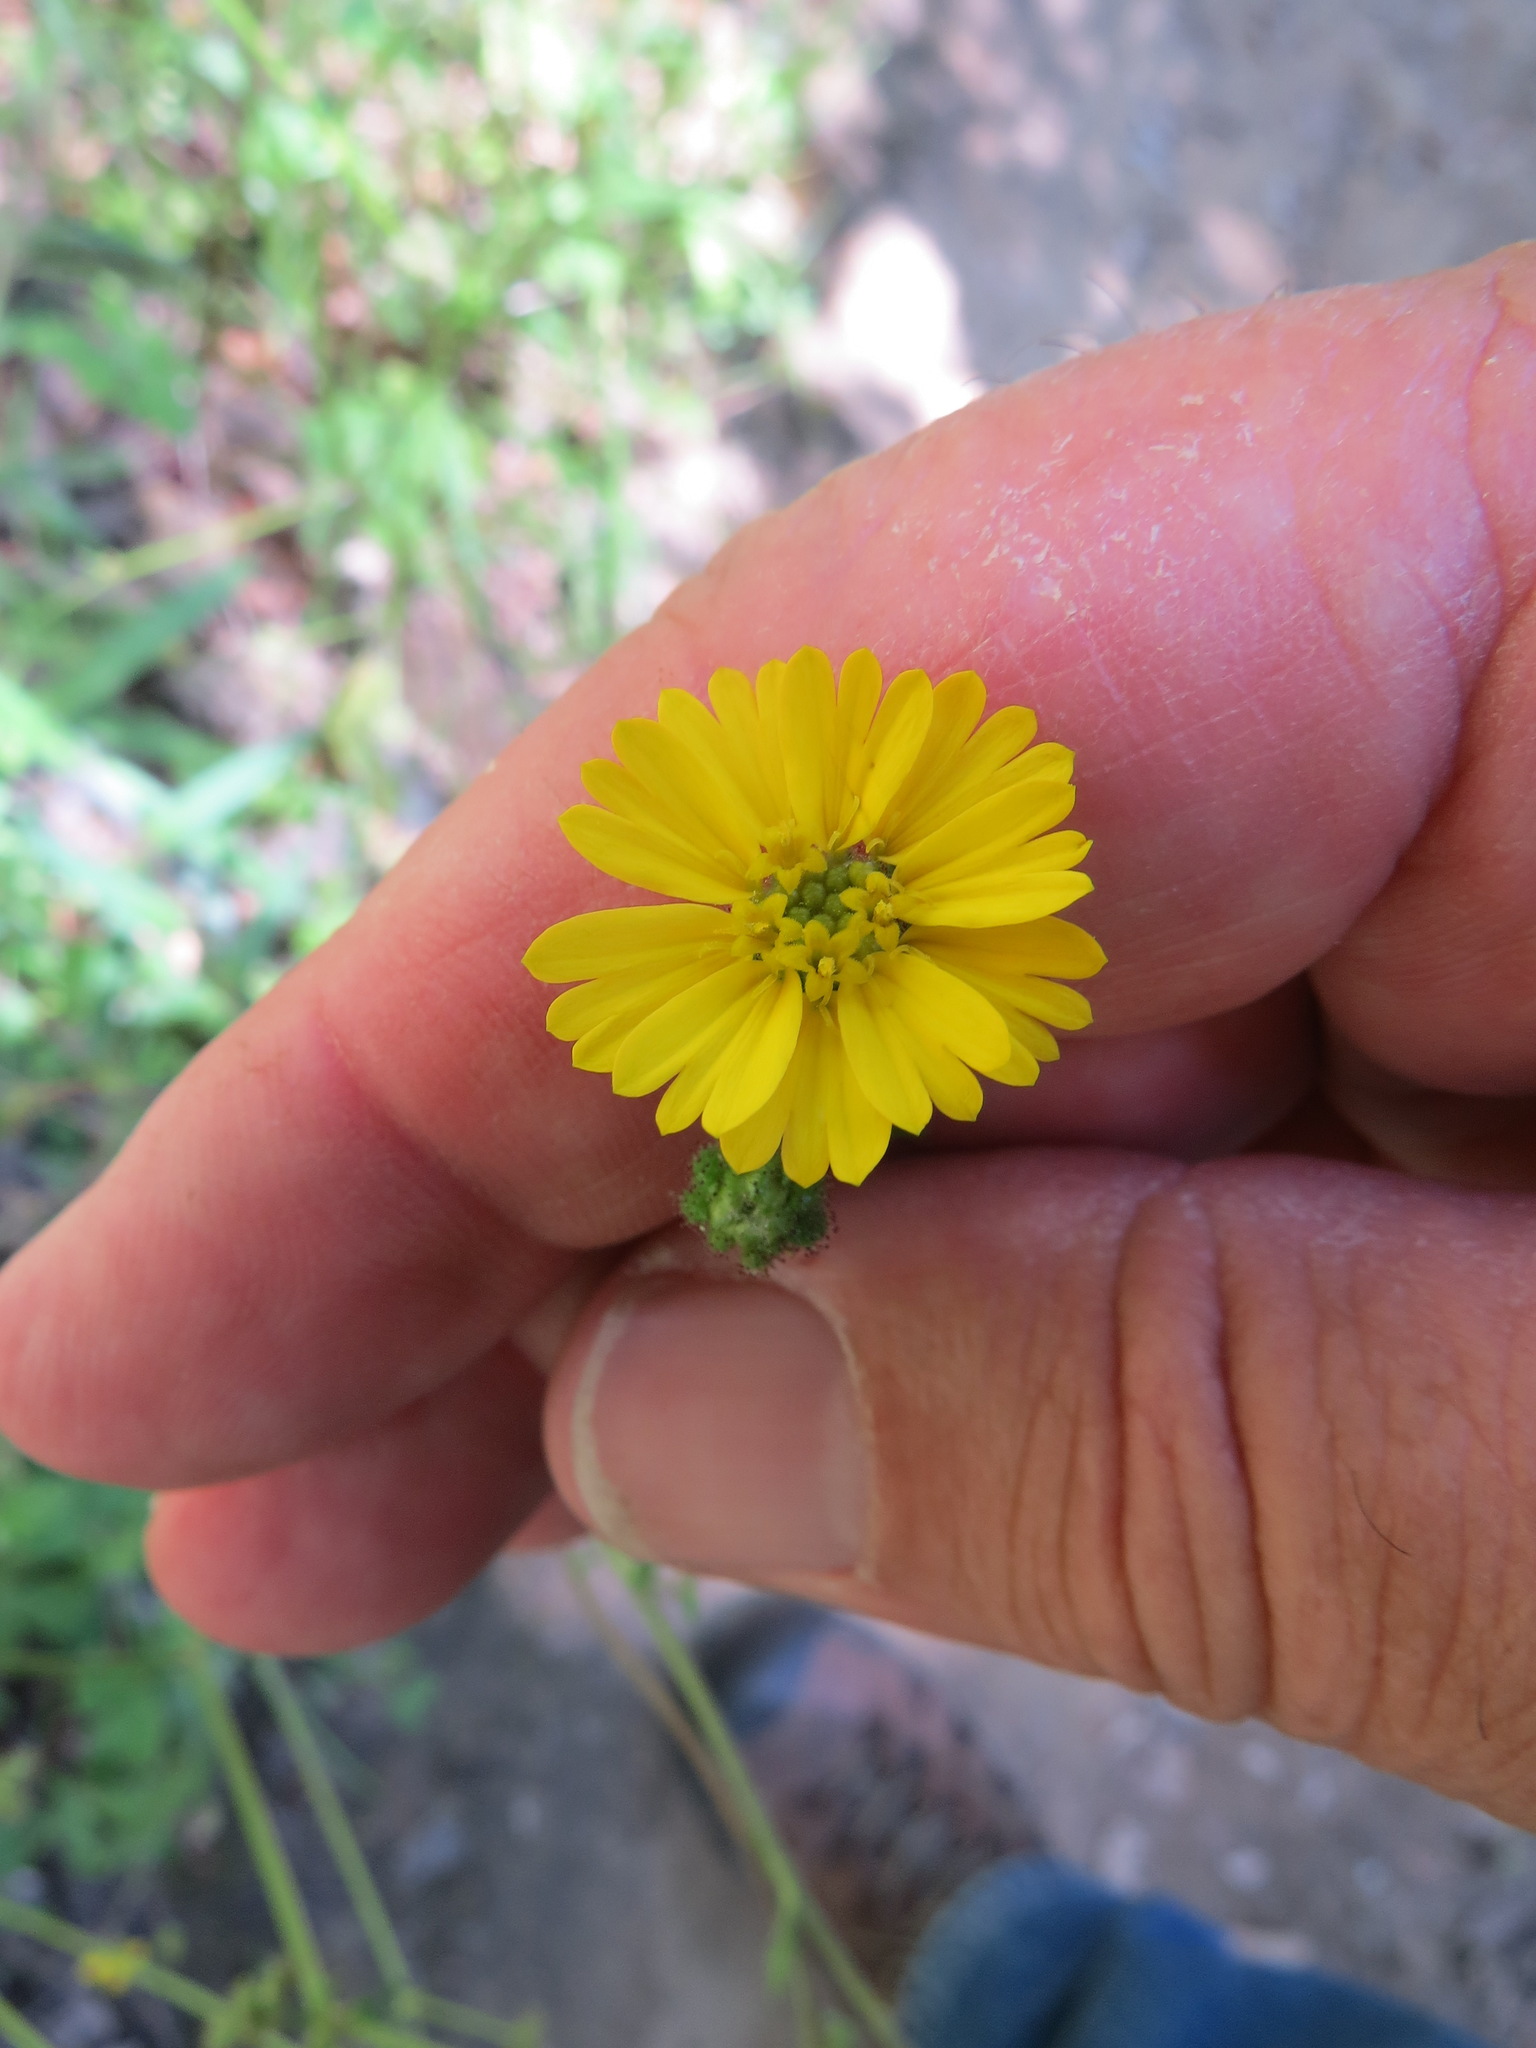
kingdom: Plantae
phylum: Tracheophyta
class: Magnoliopsida
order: Asterales
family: Asteraceae
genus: Anisocarpus
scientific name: Anisocarpus madioides
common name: Woodland madia
